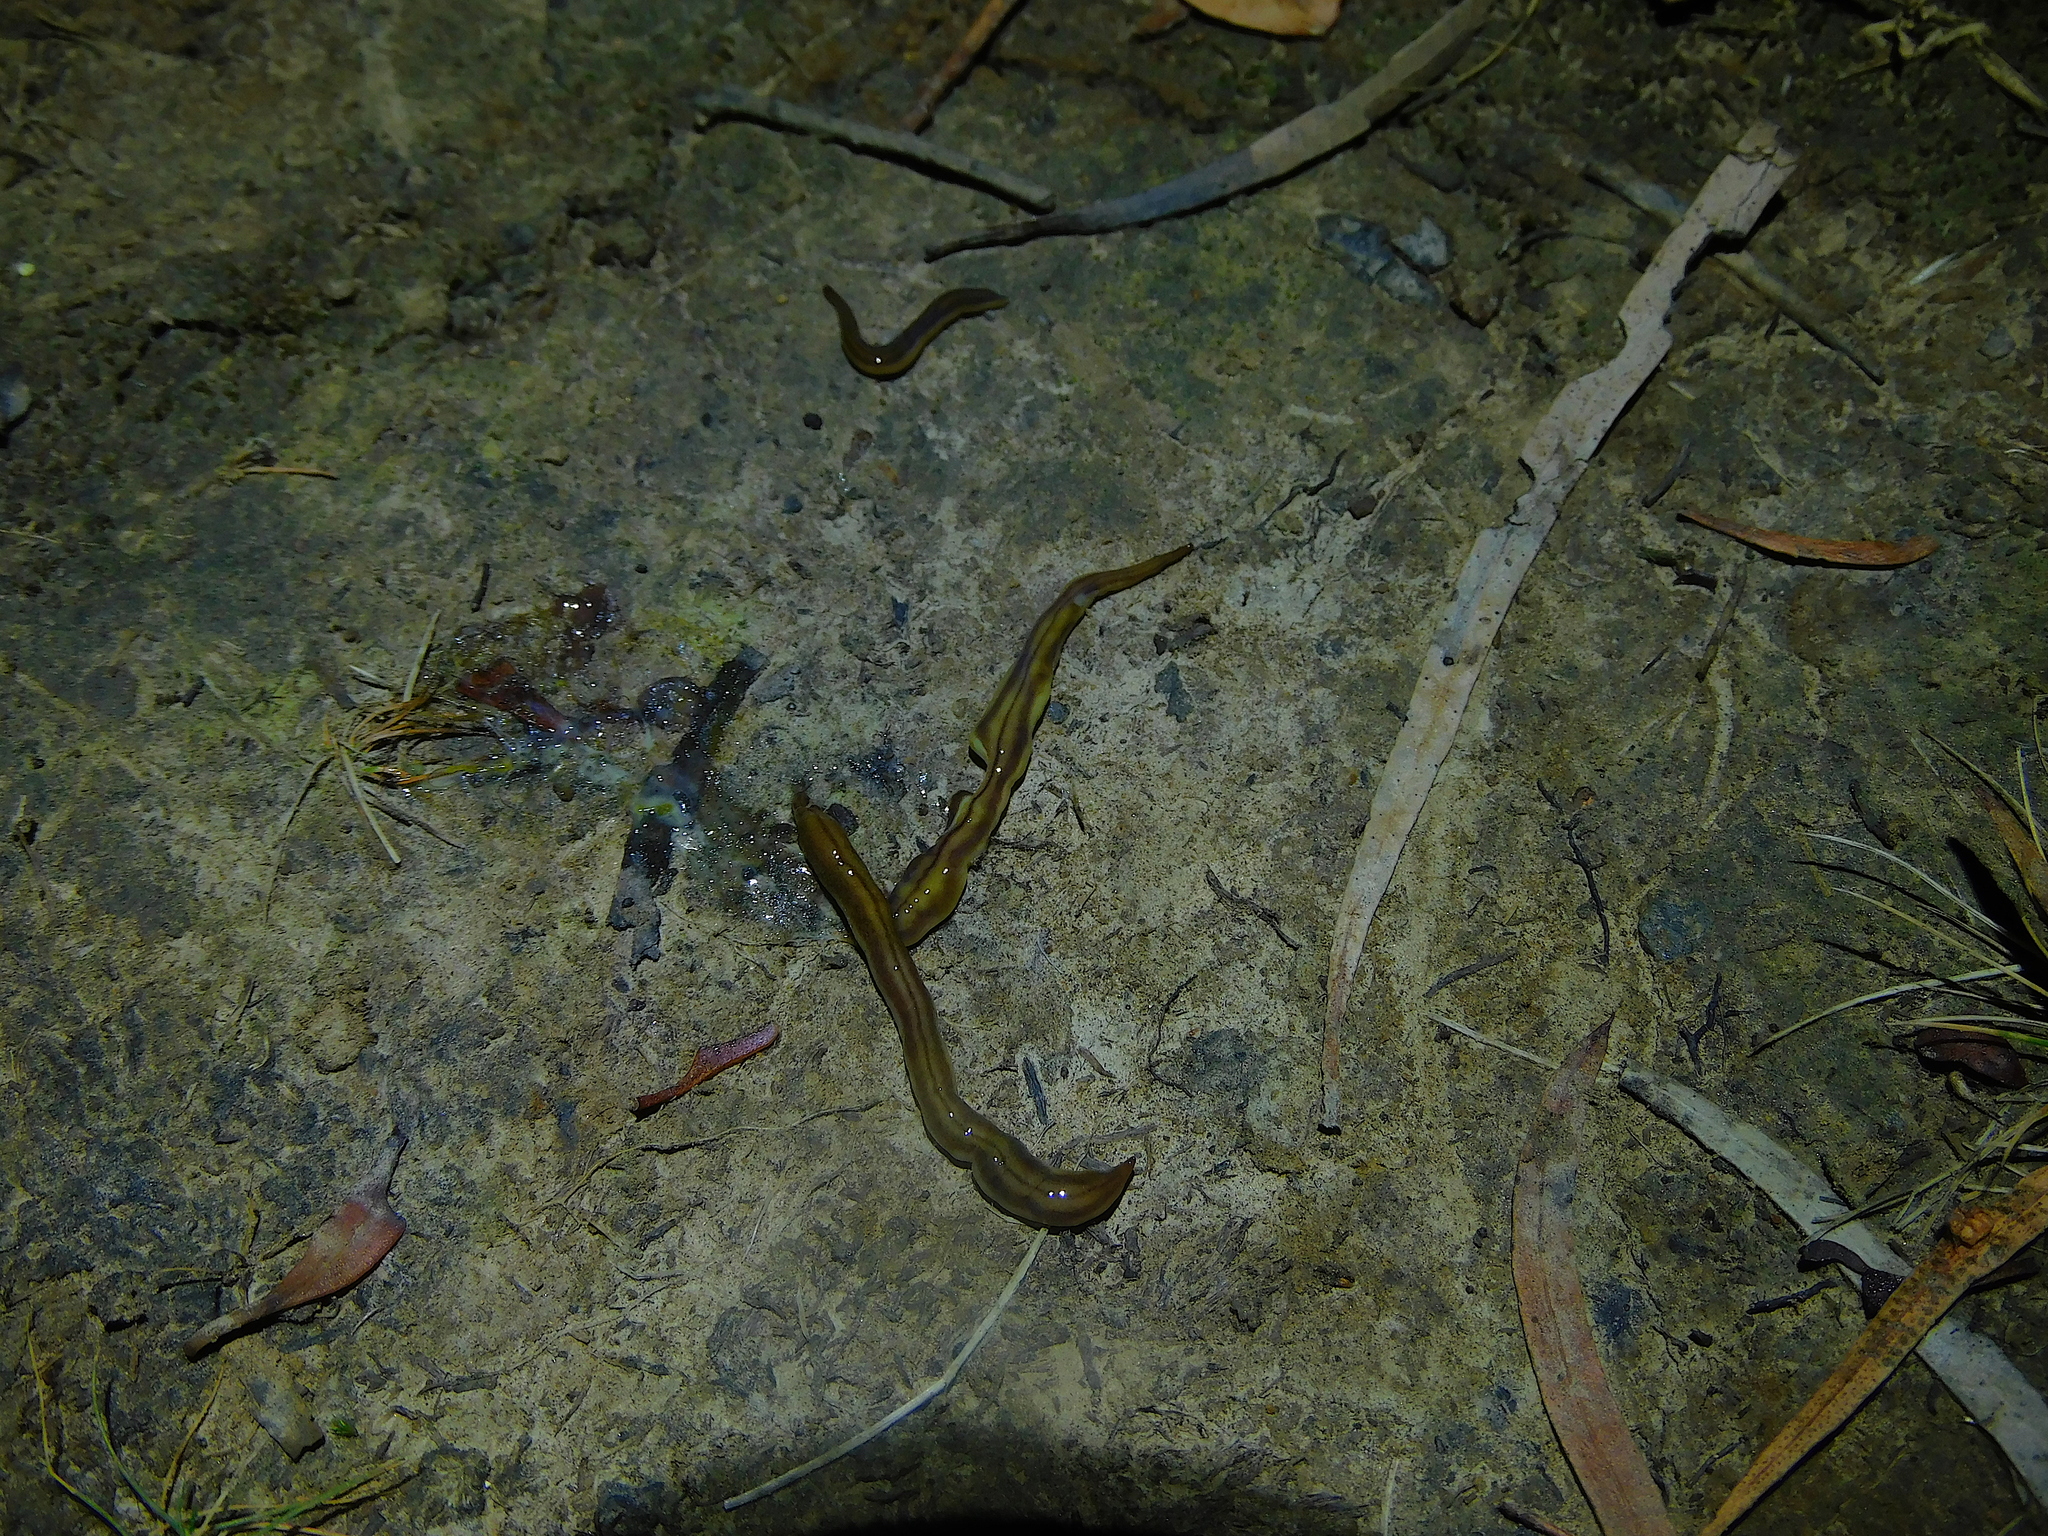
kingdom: Animalia
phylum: Platyhelminthes
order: Tricladida
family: Geoplanidae
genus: Tasmanoplana
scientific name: Tasmanoplana tasmaniana
